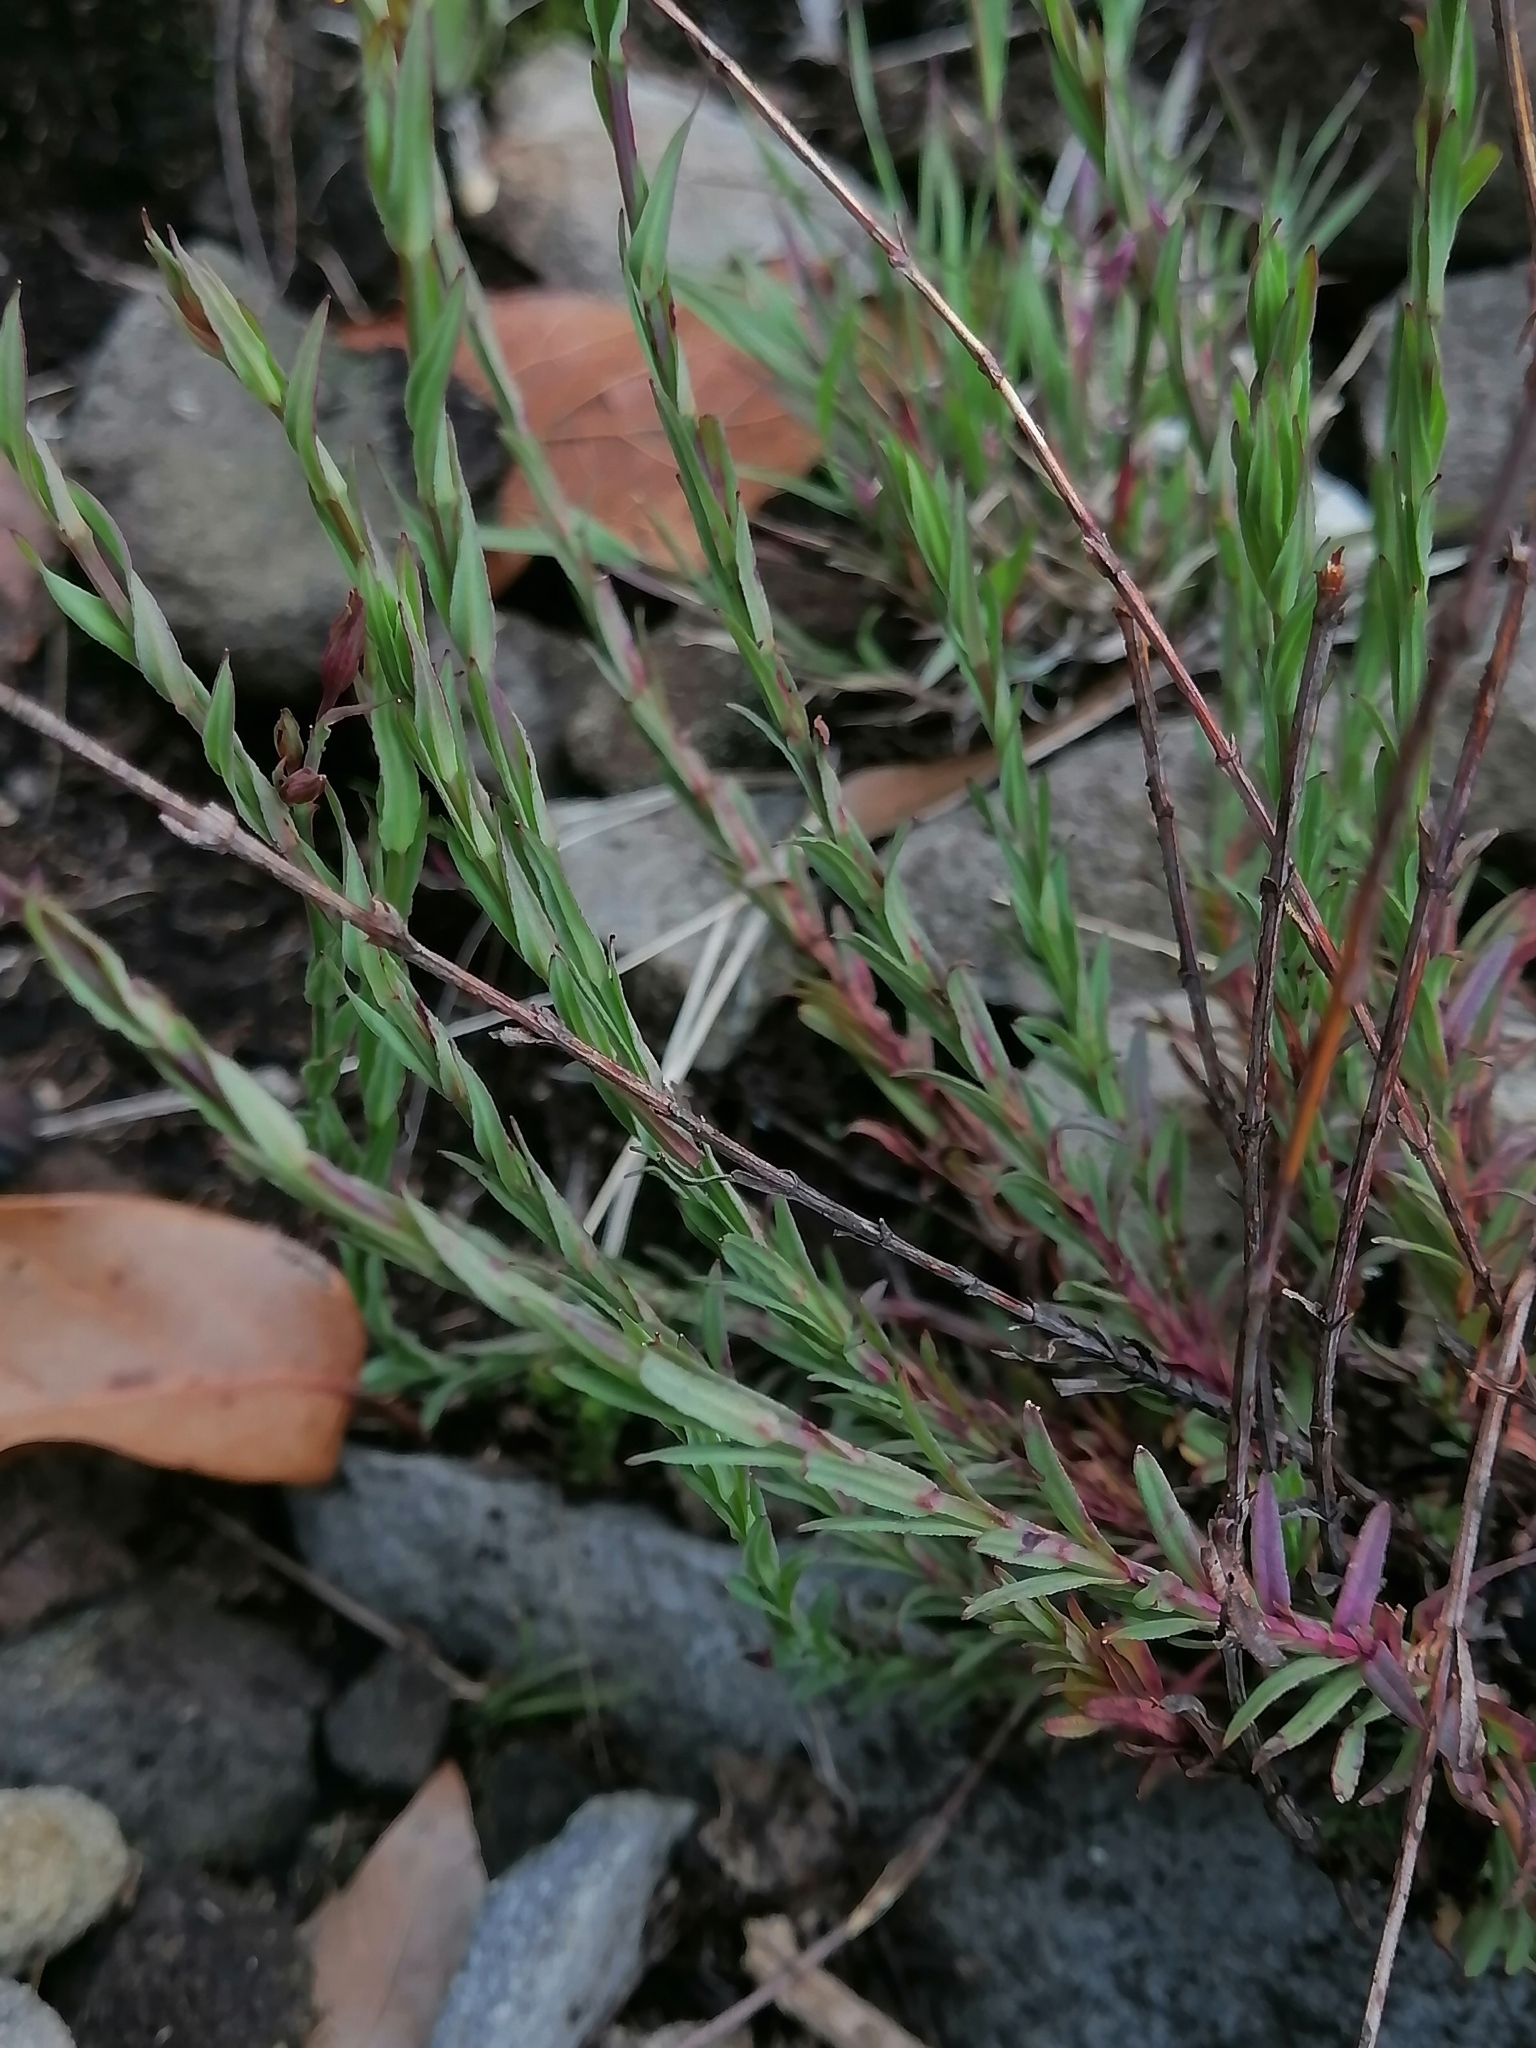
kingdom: Plantae
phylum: Tracheophyta
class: Magnoliopsida
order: Malpighiales
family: Hypericaceae
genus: Hypericum
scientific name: Hypericum silenoides
